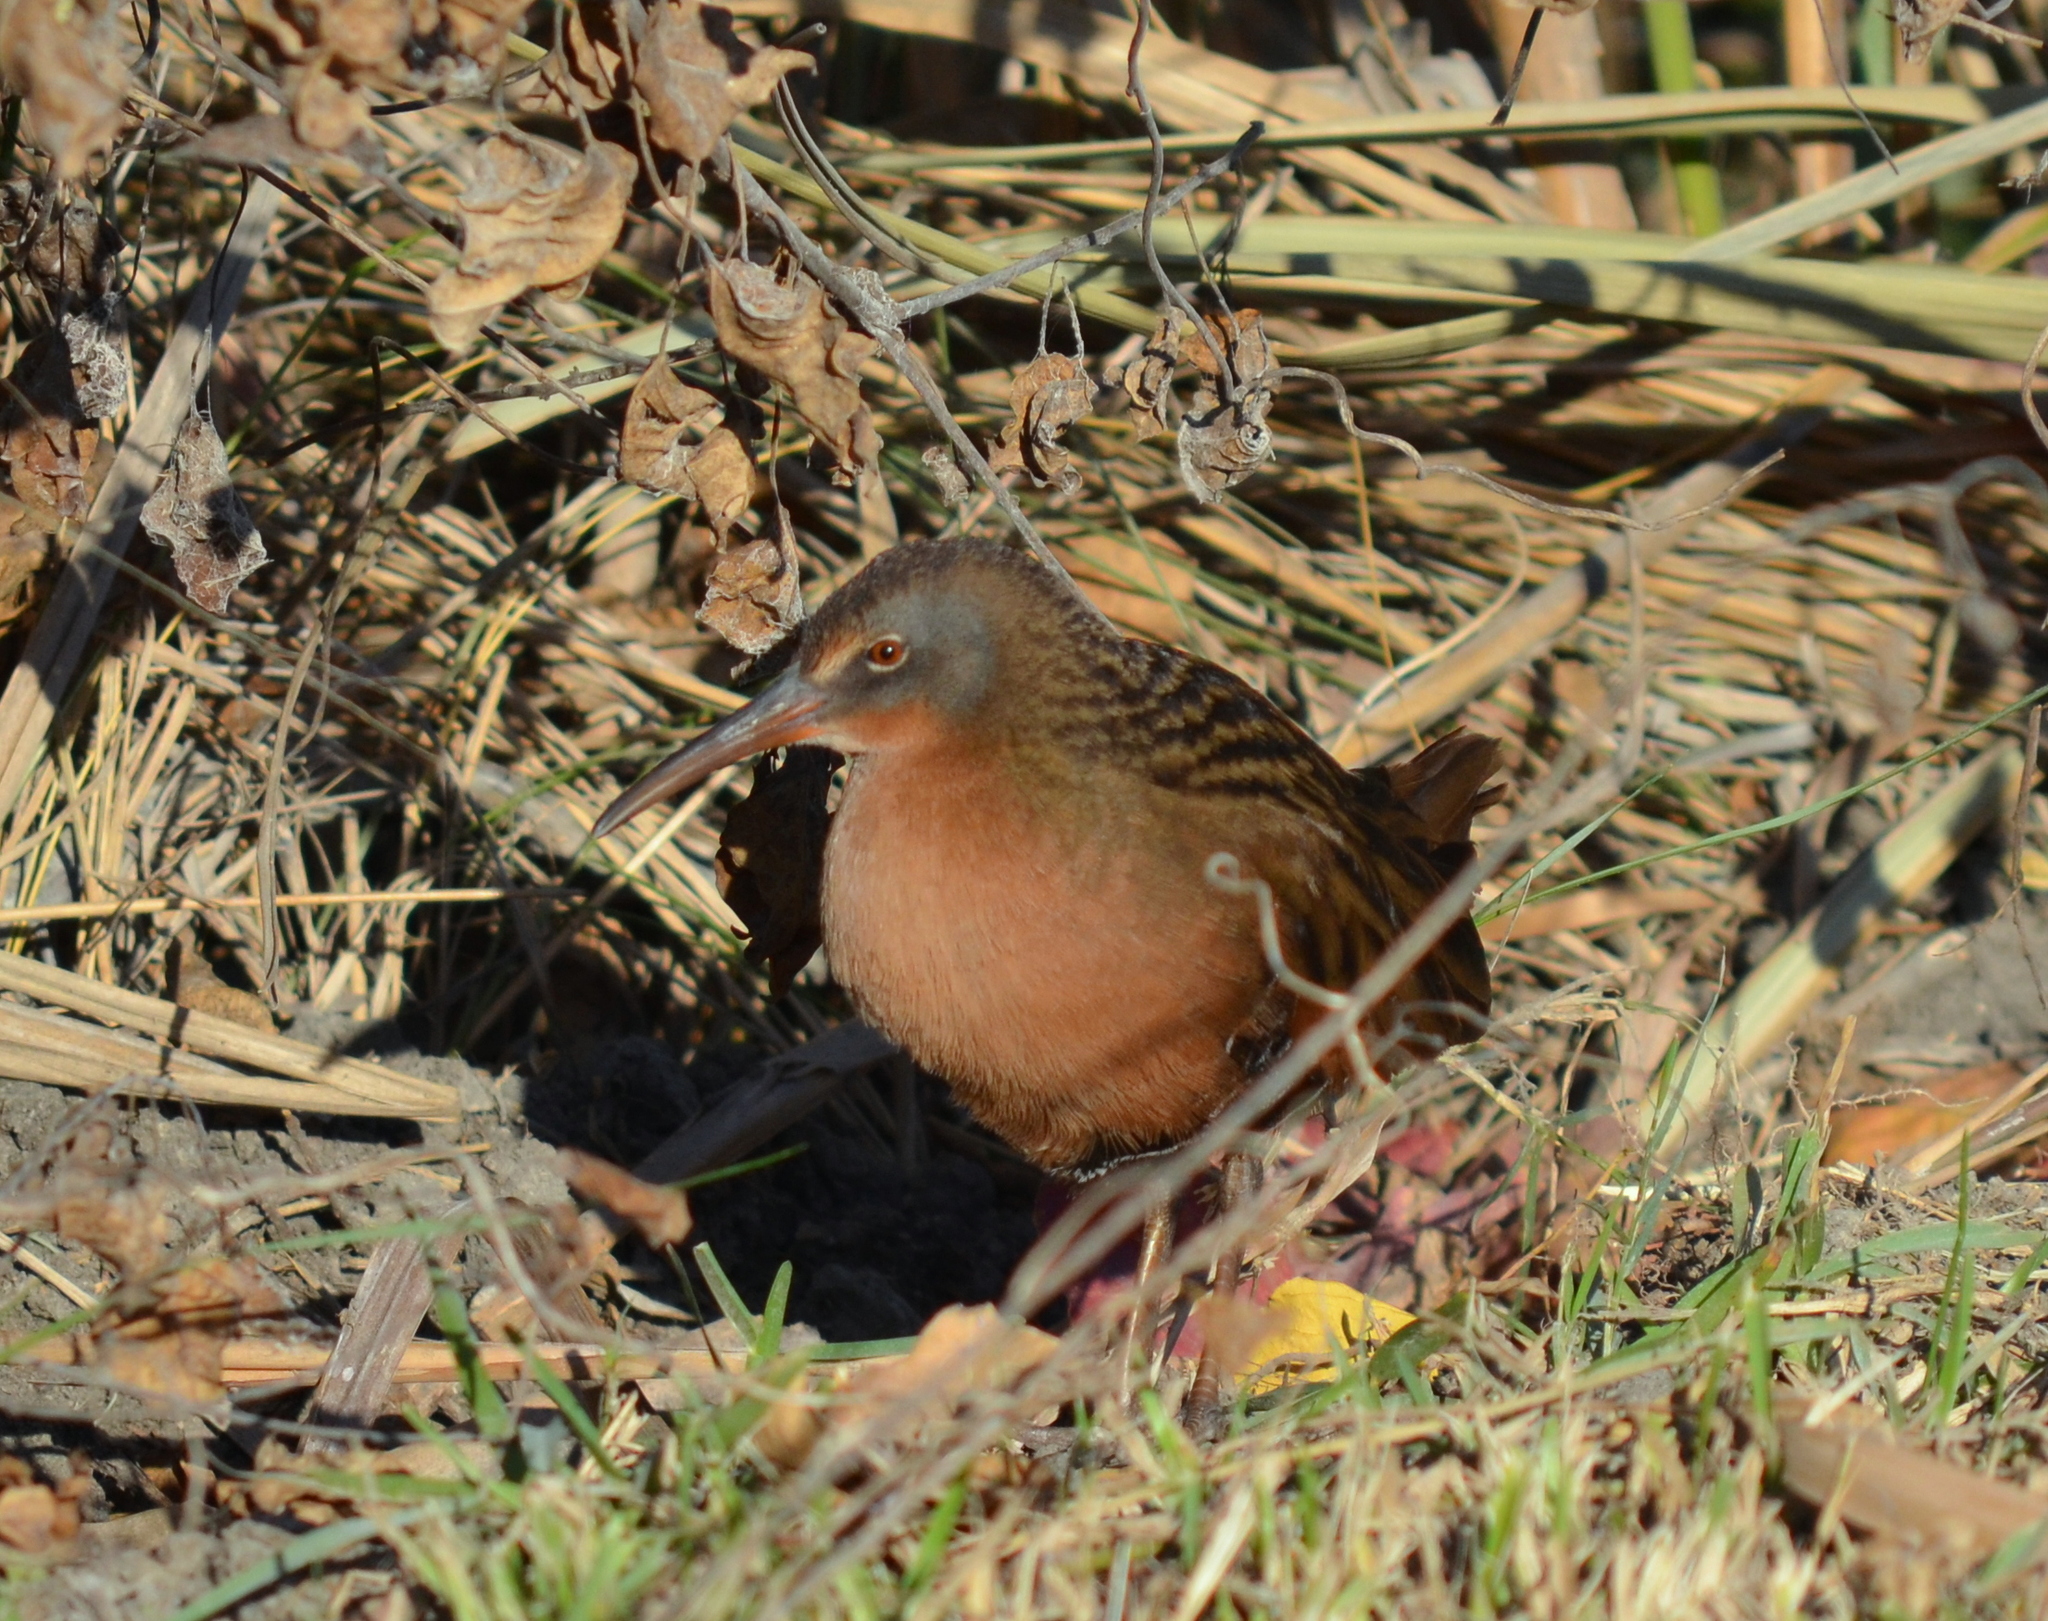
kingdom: Animalia
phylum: Chordata
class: Aves
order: Gruiformes
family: Rallidae
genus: Rallus
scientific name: Rallus limicola
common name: Virginia rail
